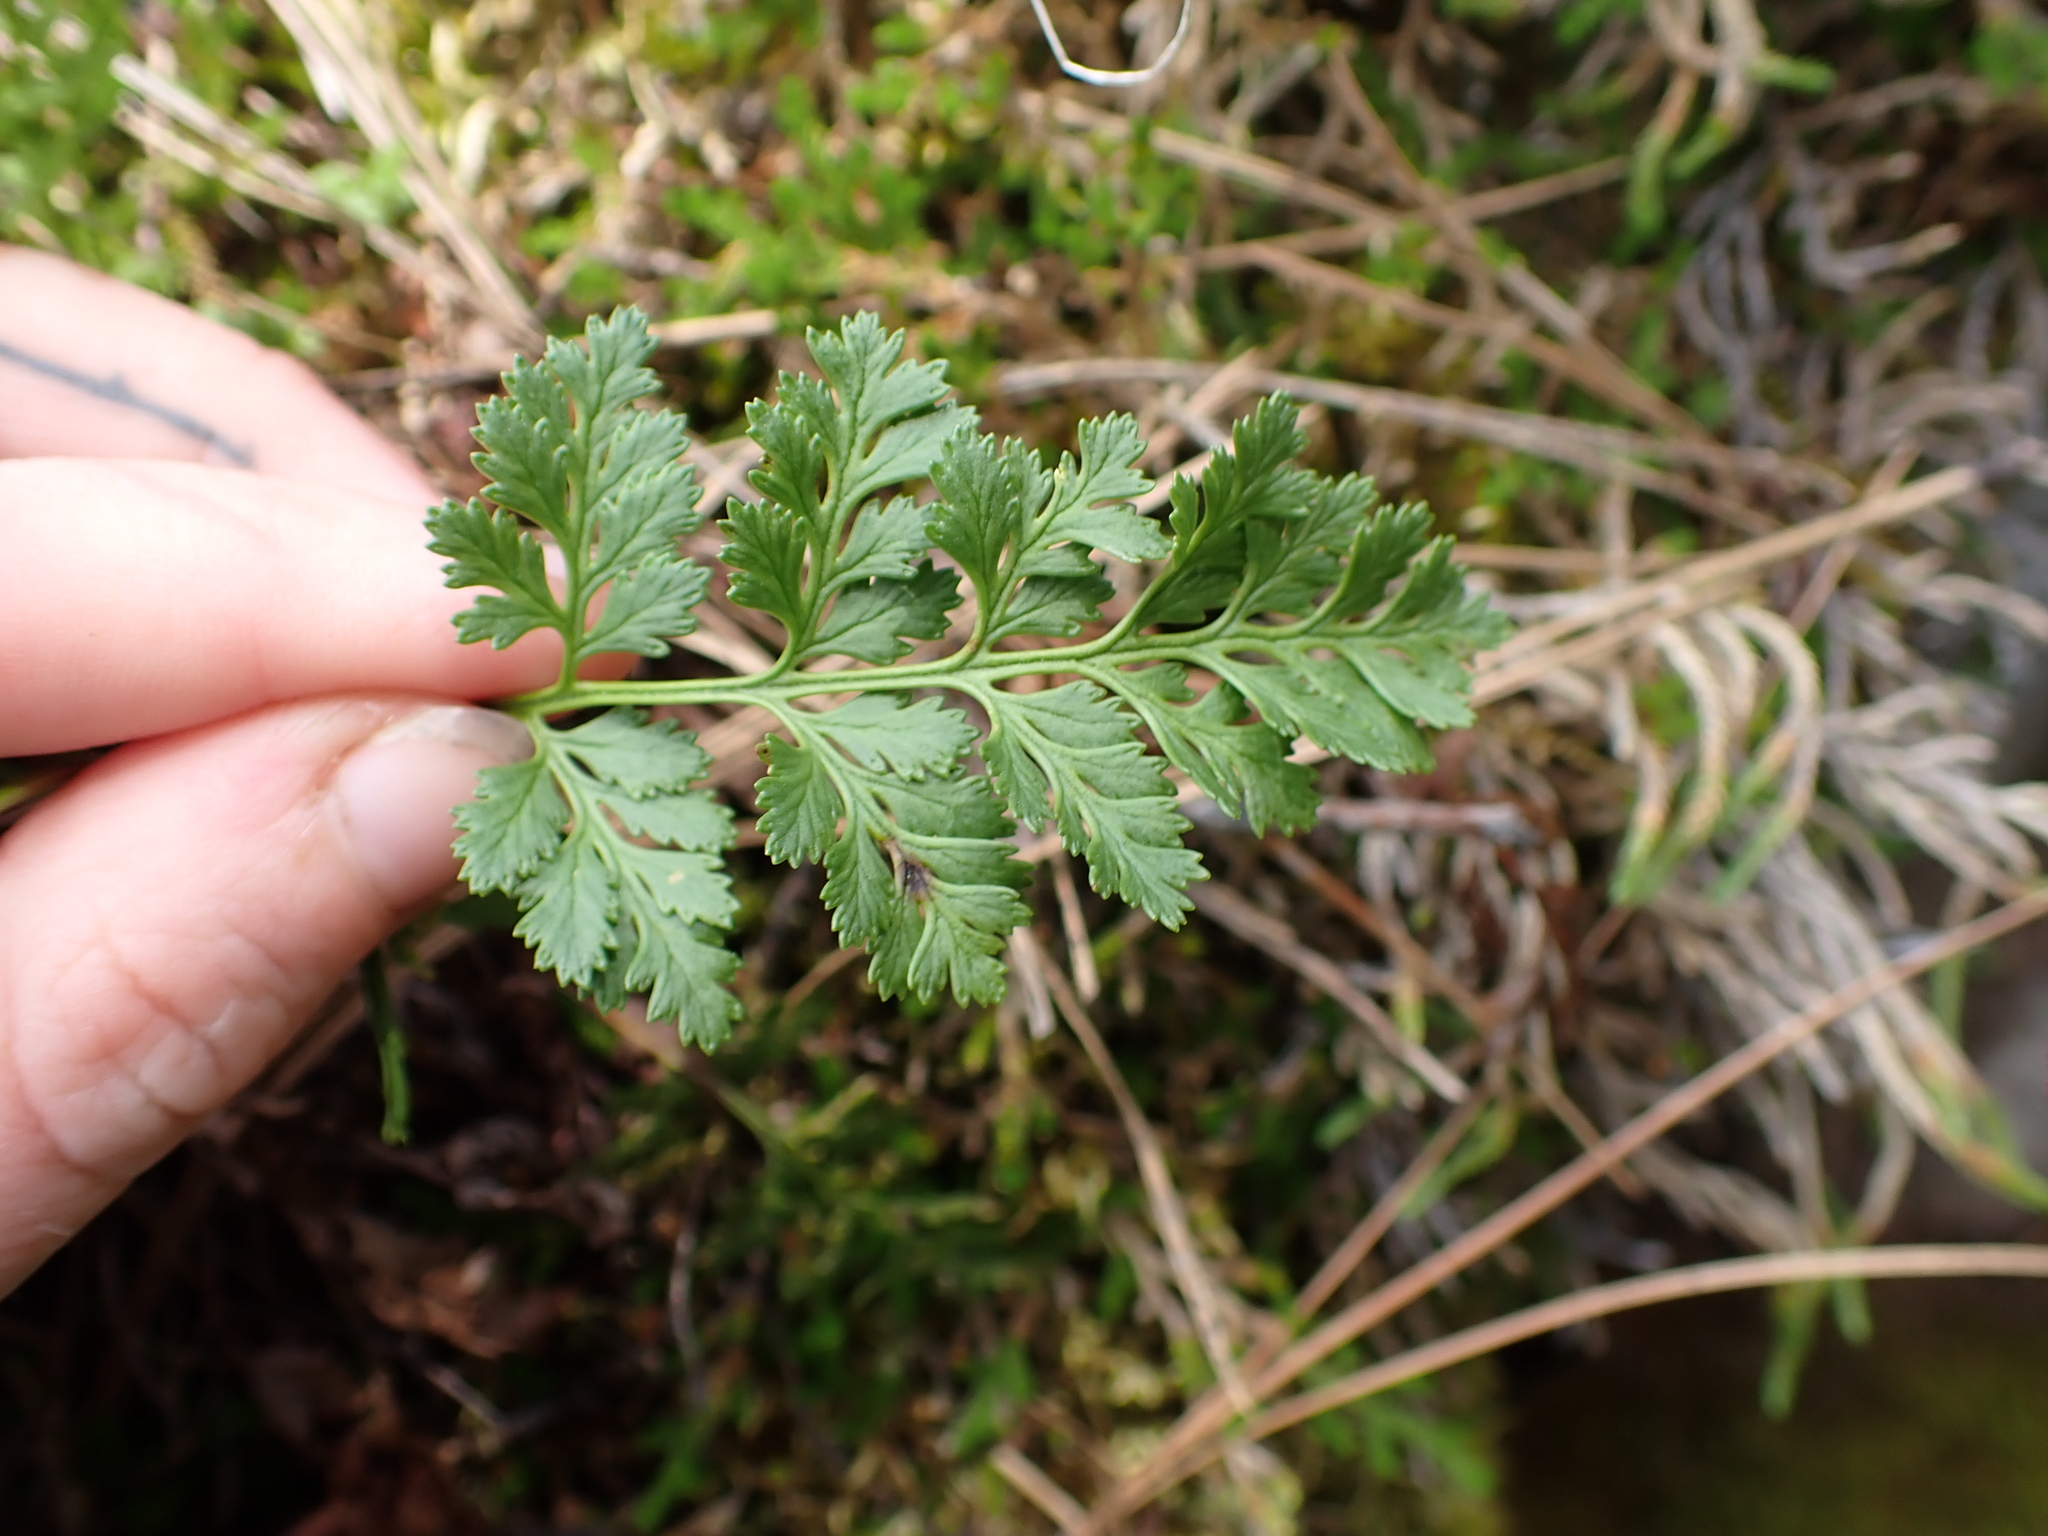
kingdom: Plantae
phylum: Tracheophyta
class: Polypodiopsida
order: Polypodiales
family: Pteridaceae
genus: Cryptogramma
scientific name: Cryptogramma acrostichoides
